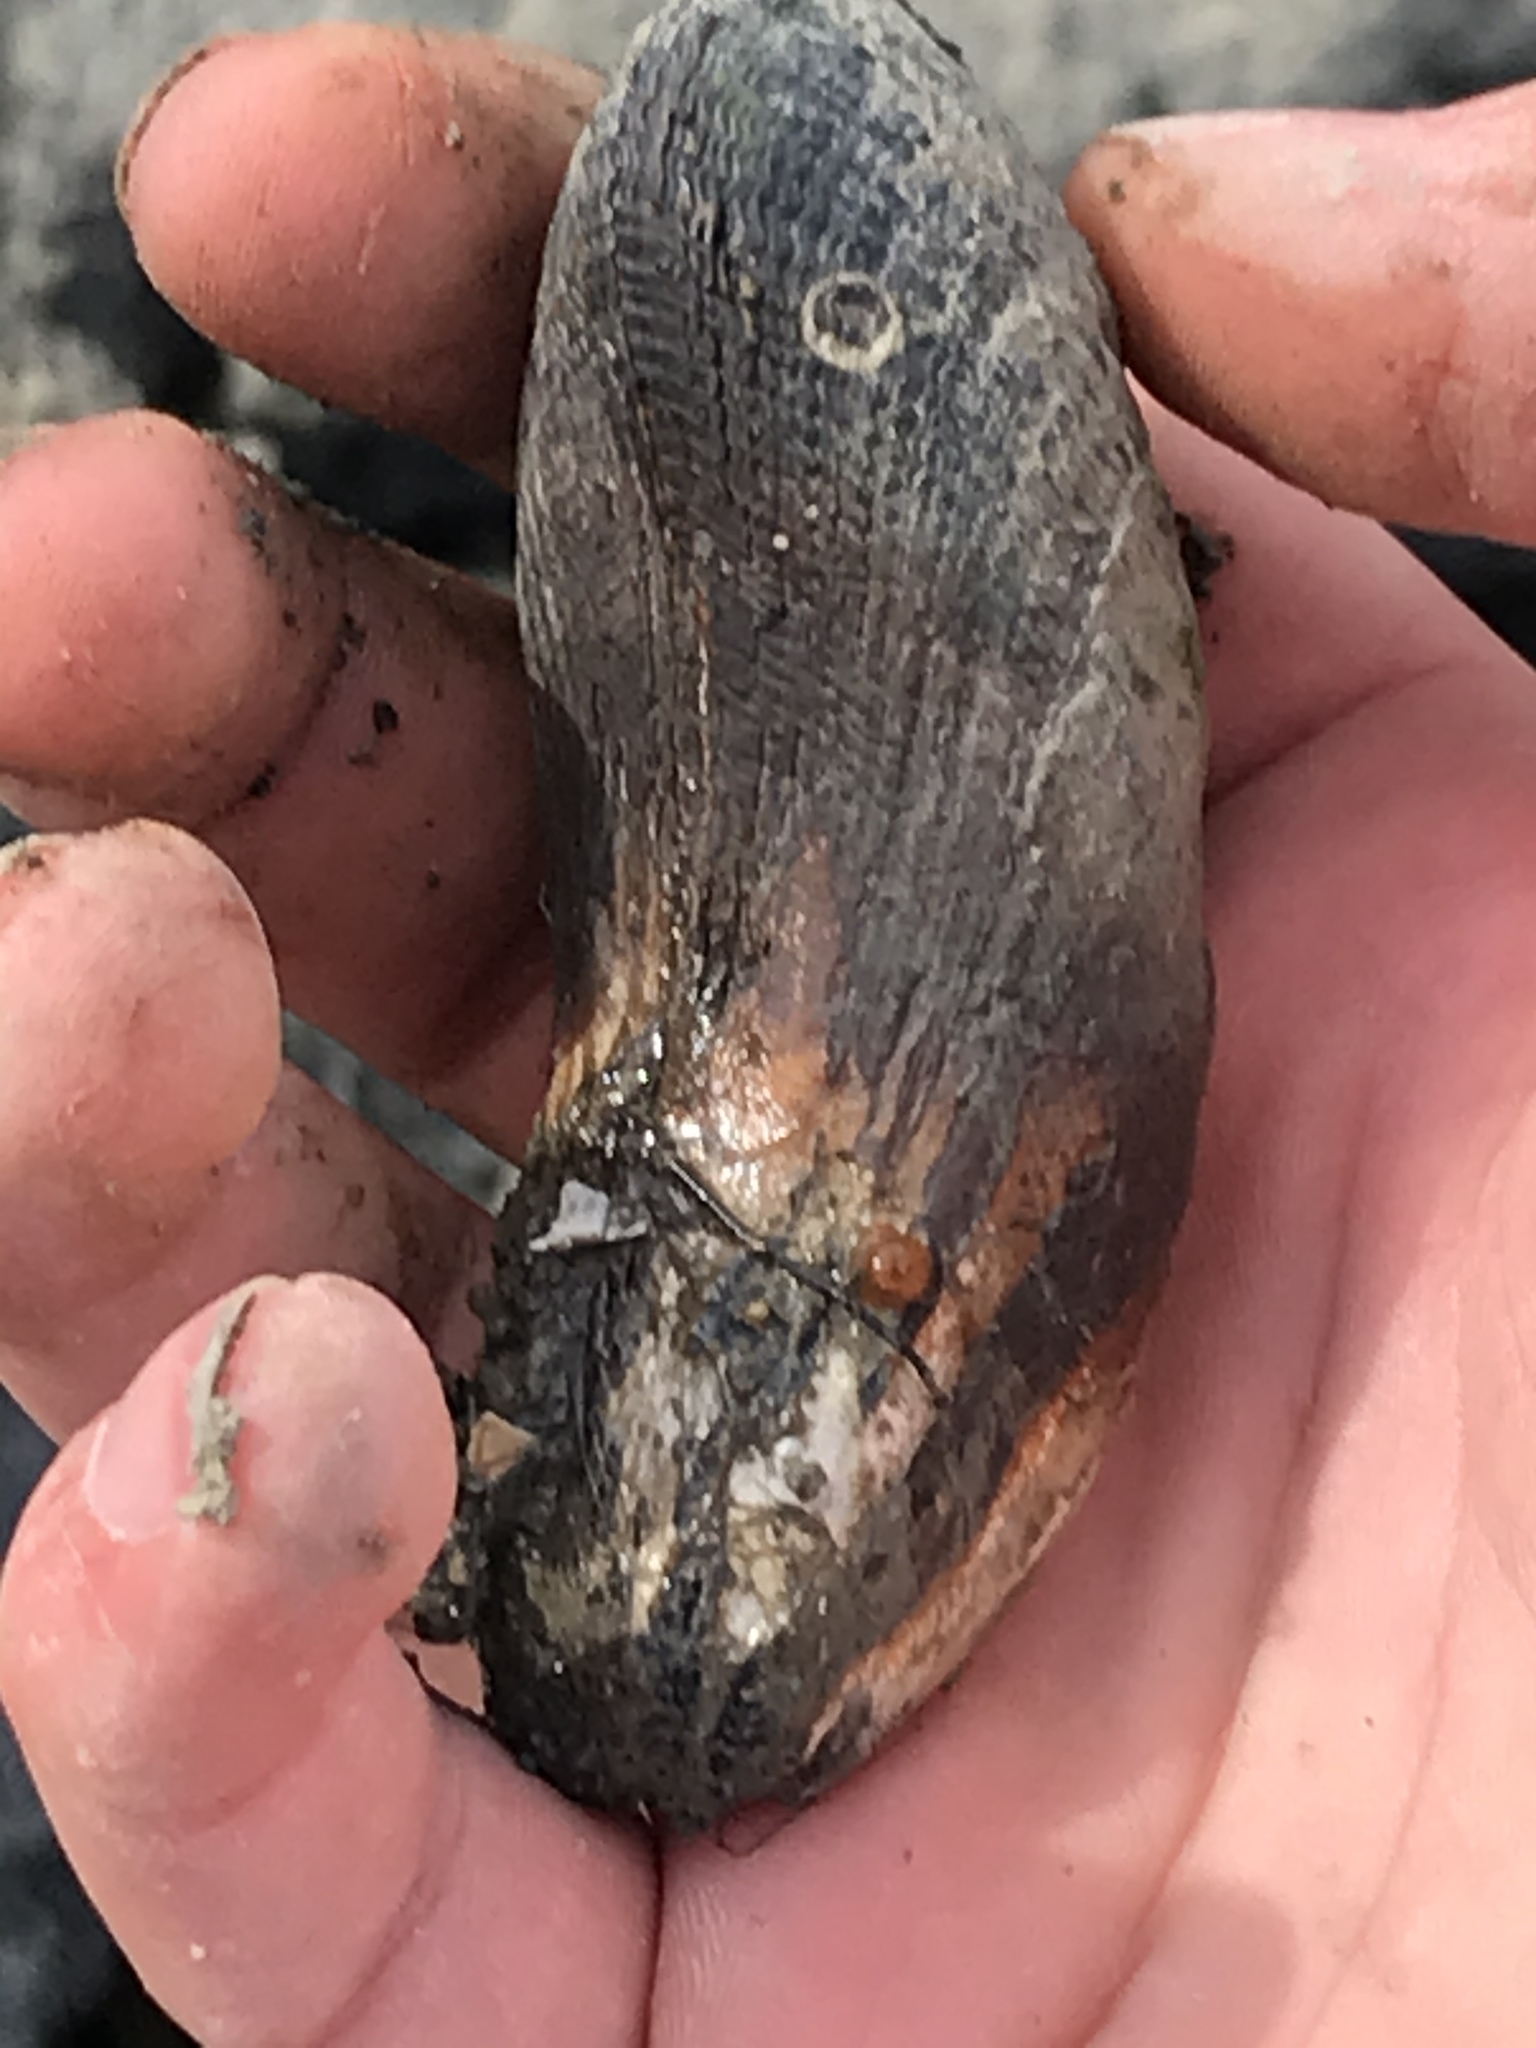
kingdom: Animalia
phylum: Mollusca
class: Bivalvia
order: Mytilida
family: Mytilidae
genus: Geukensia
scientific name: Geukensia demissa
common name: Ribbed mussel
